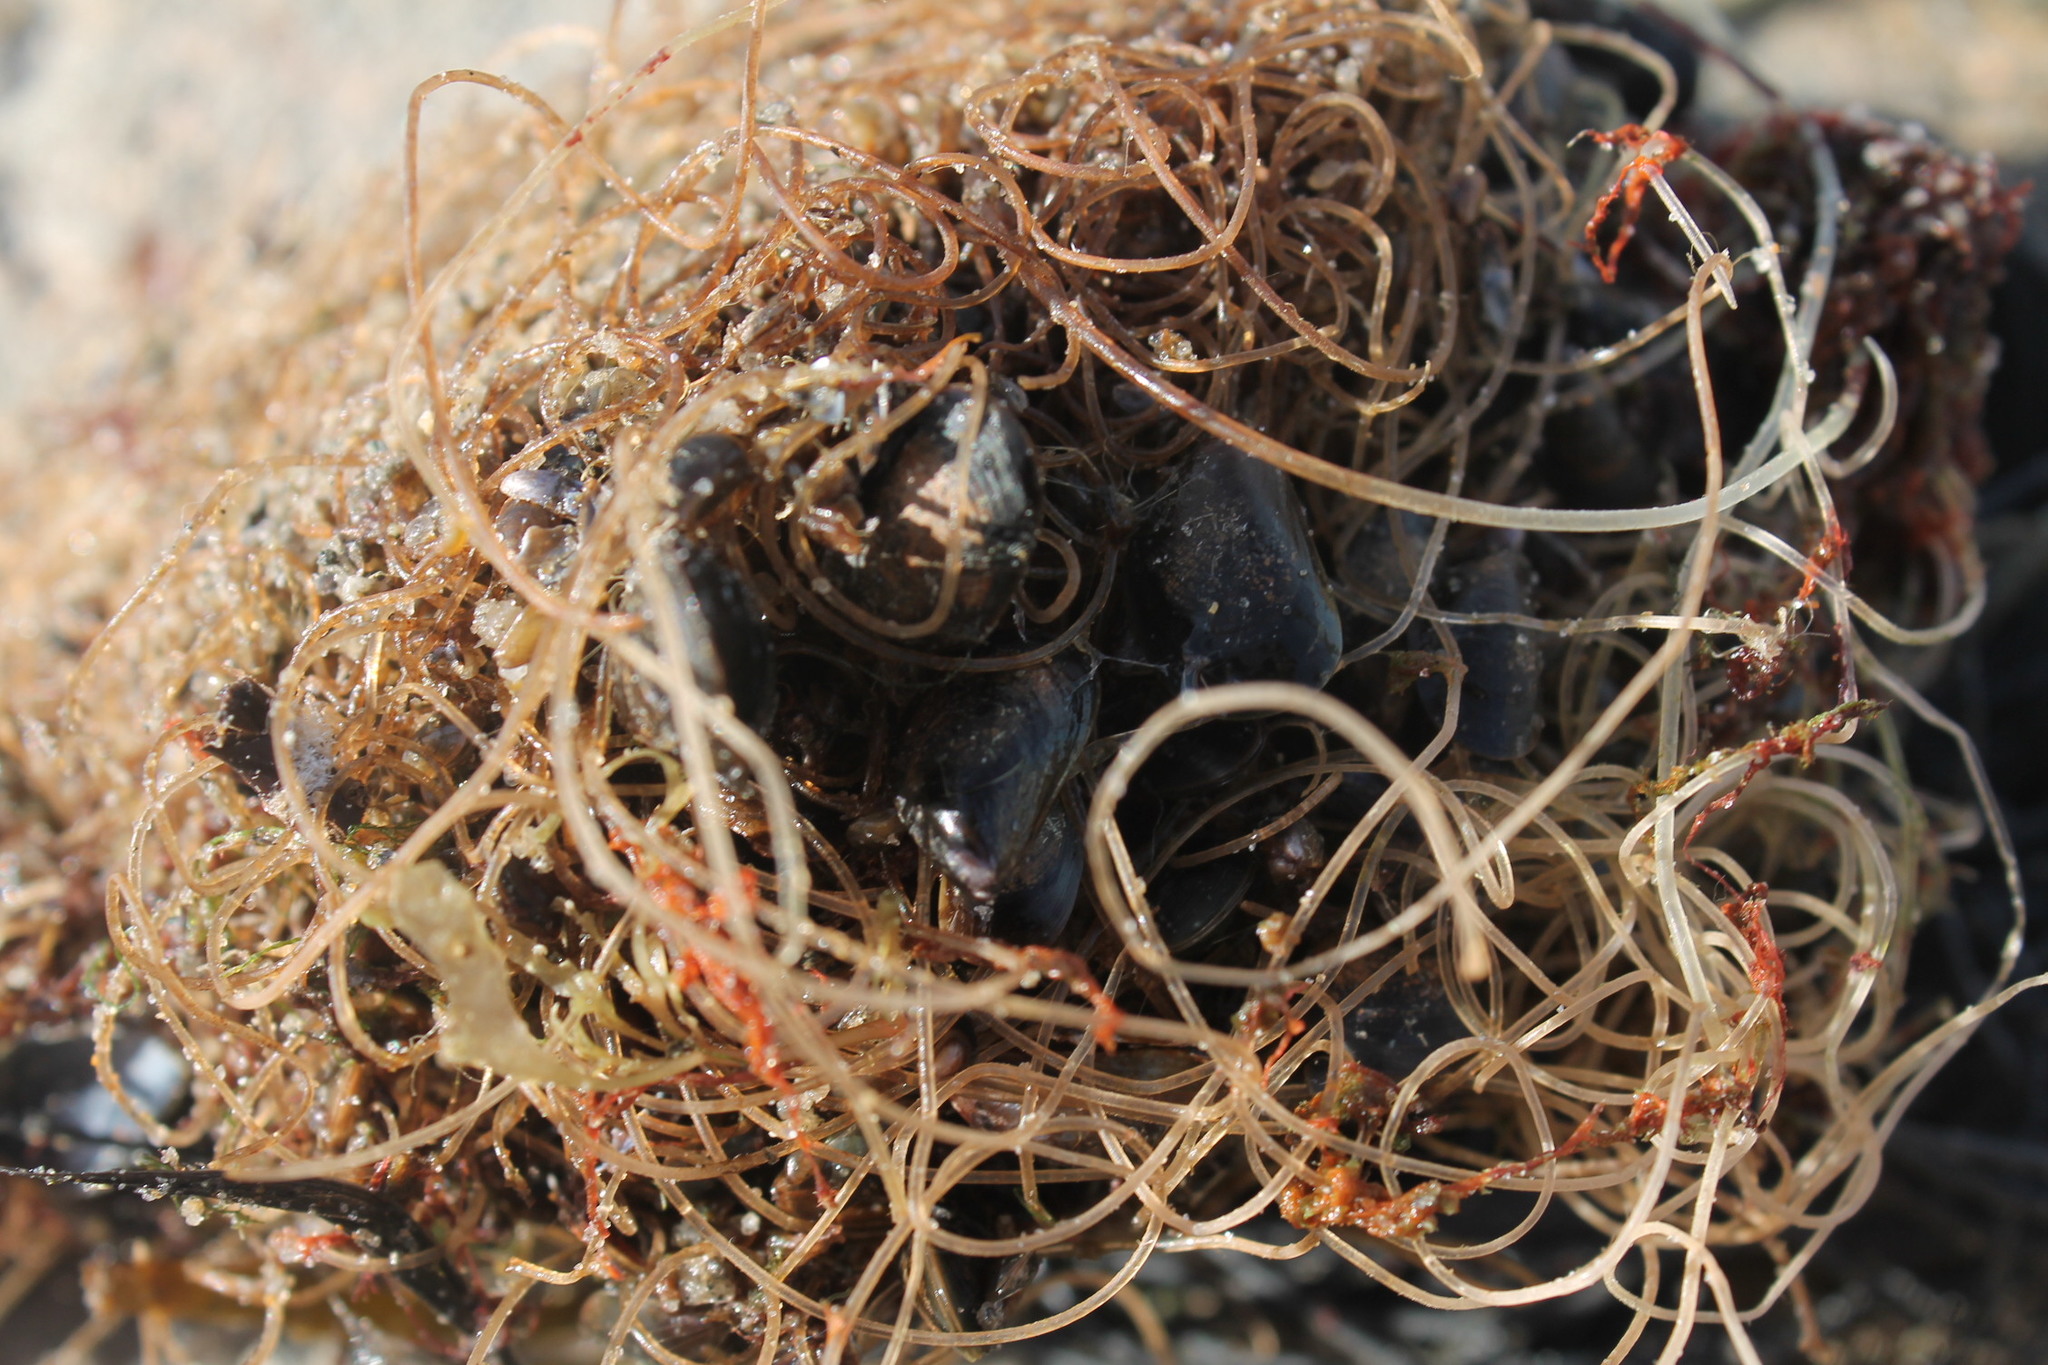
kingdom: Animalia
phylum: Mollusca
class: Bivalvia
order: Mytilida
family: Mytilidae
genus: Mytilus
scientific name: Mytilus edulis
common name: Blue mussel
